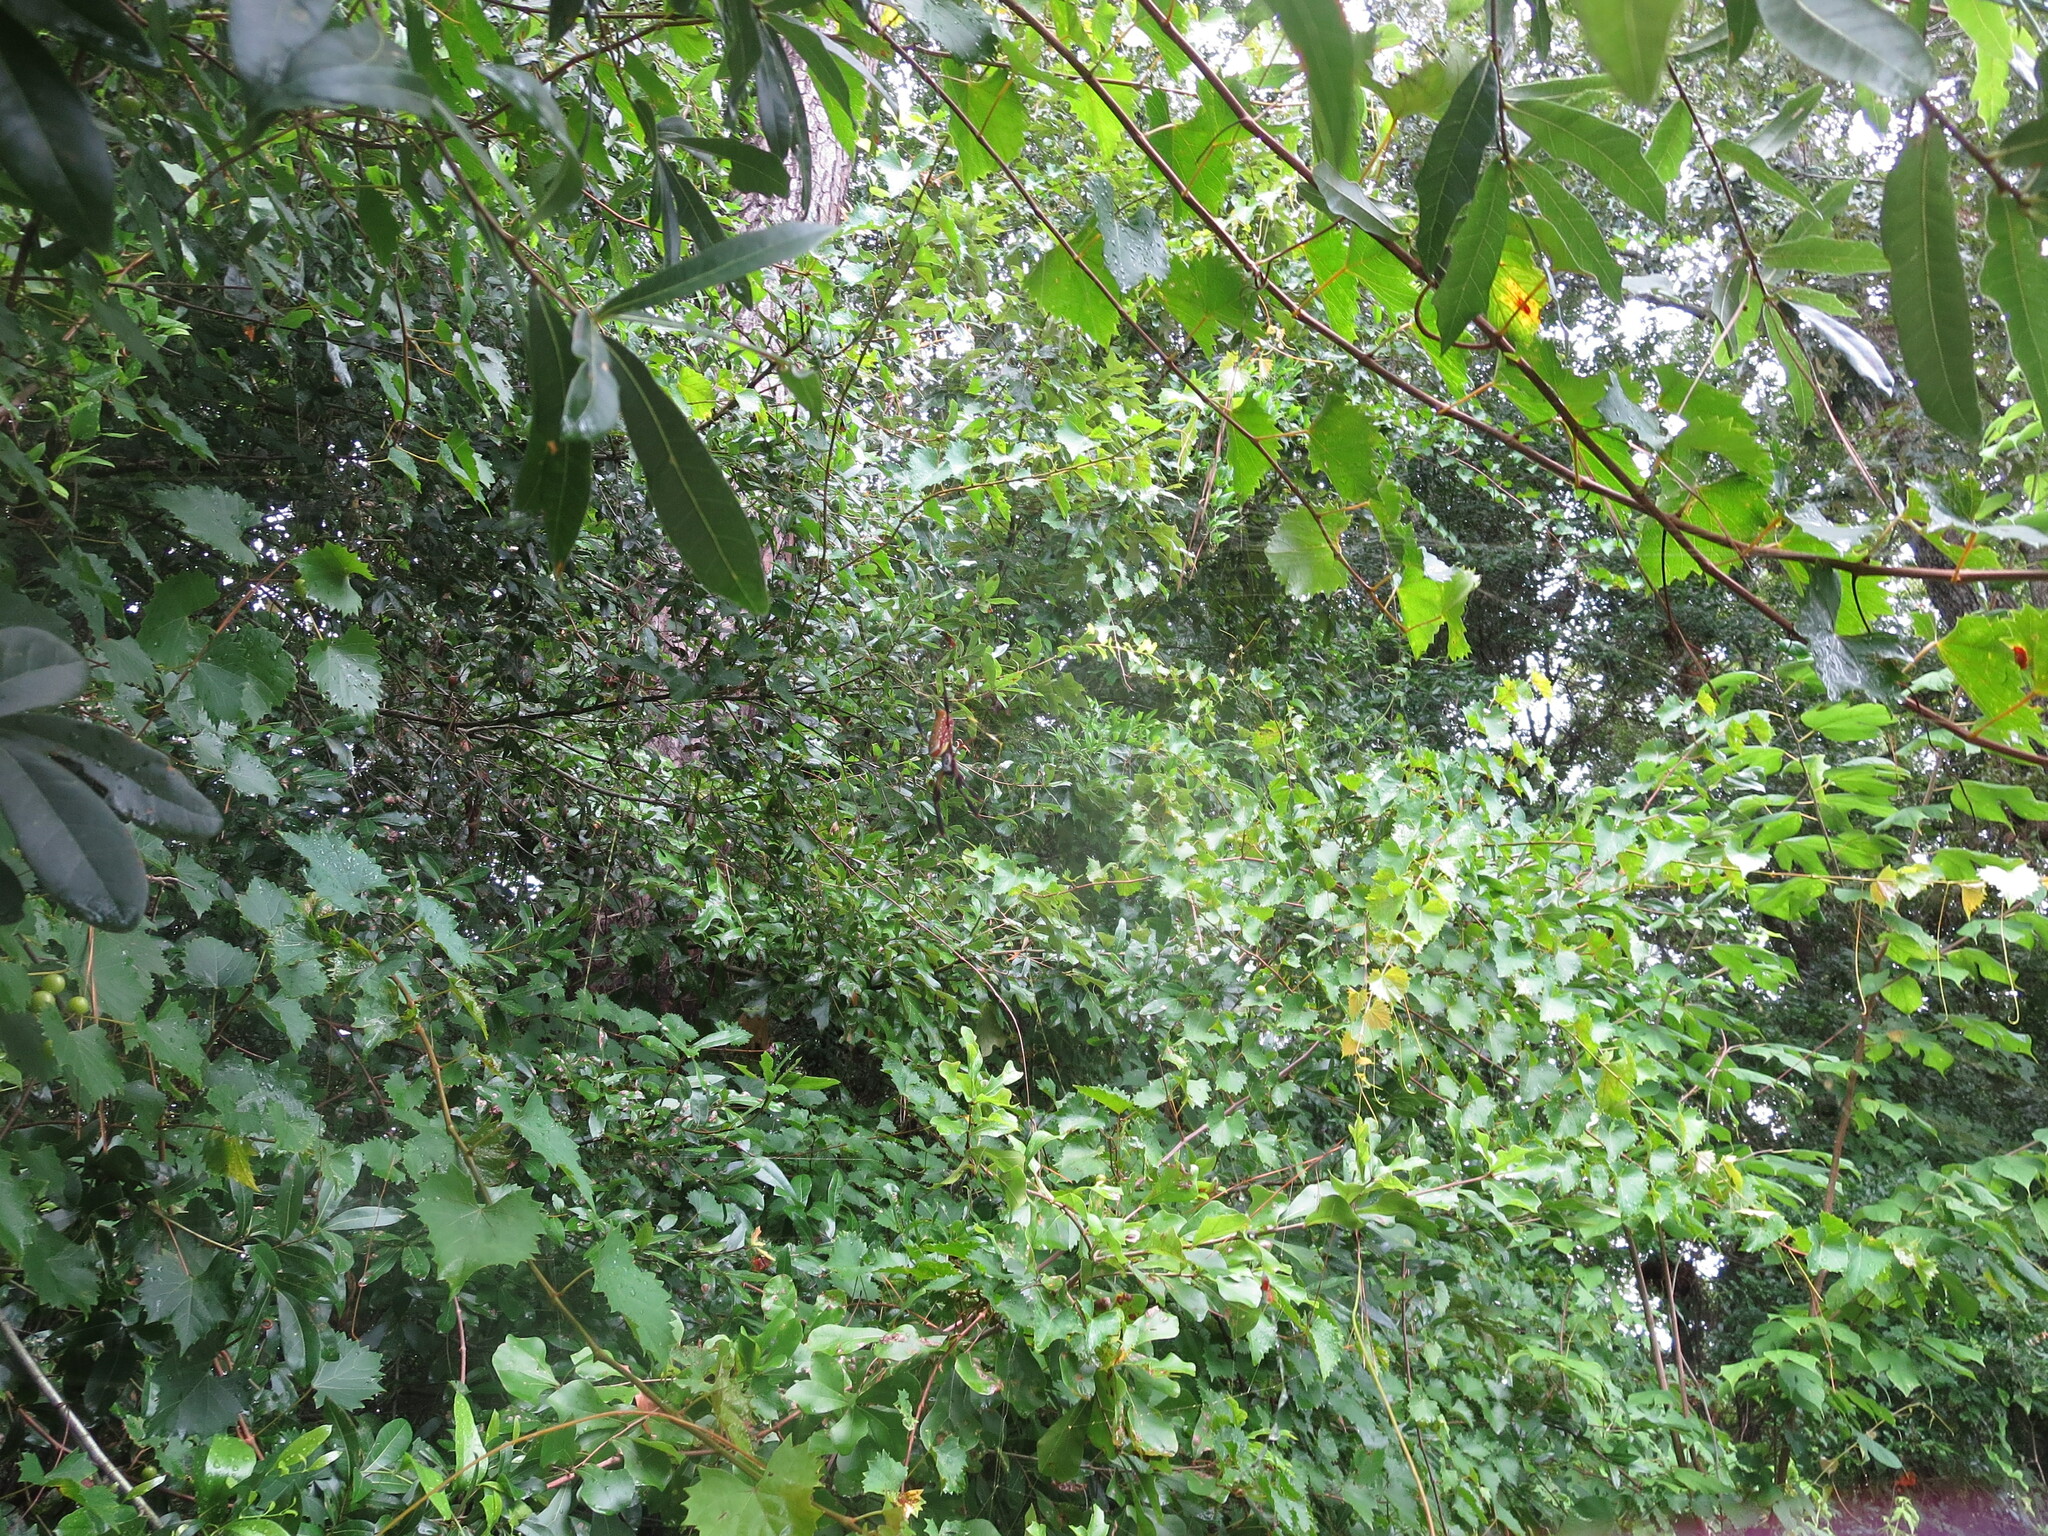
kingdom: Animalia
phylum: Arthropoda
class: Arachnida
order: Araneae
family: Araneidae
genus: Trichonephila
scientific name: Trichonephila clavipes
